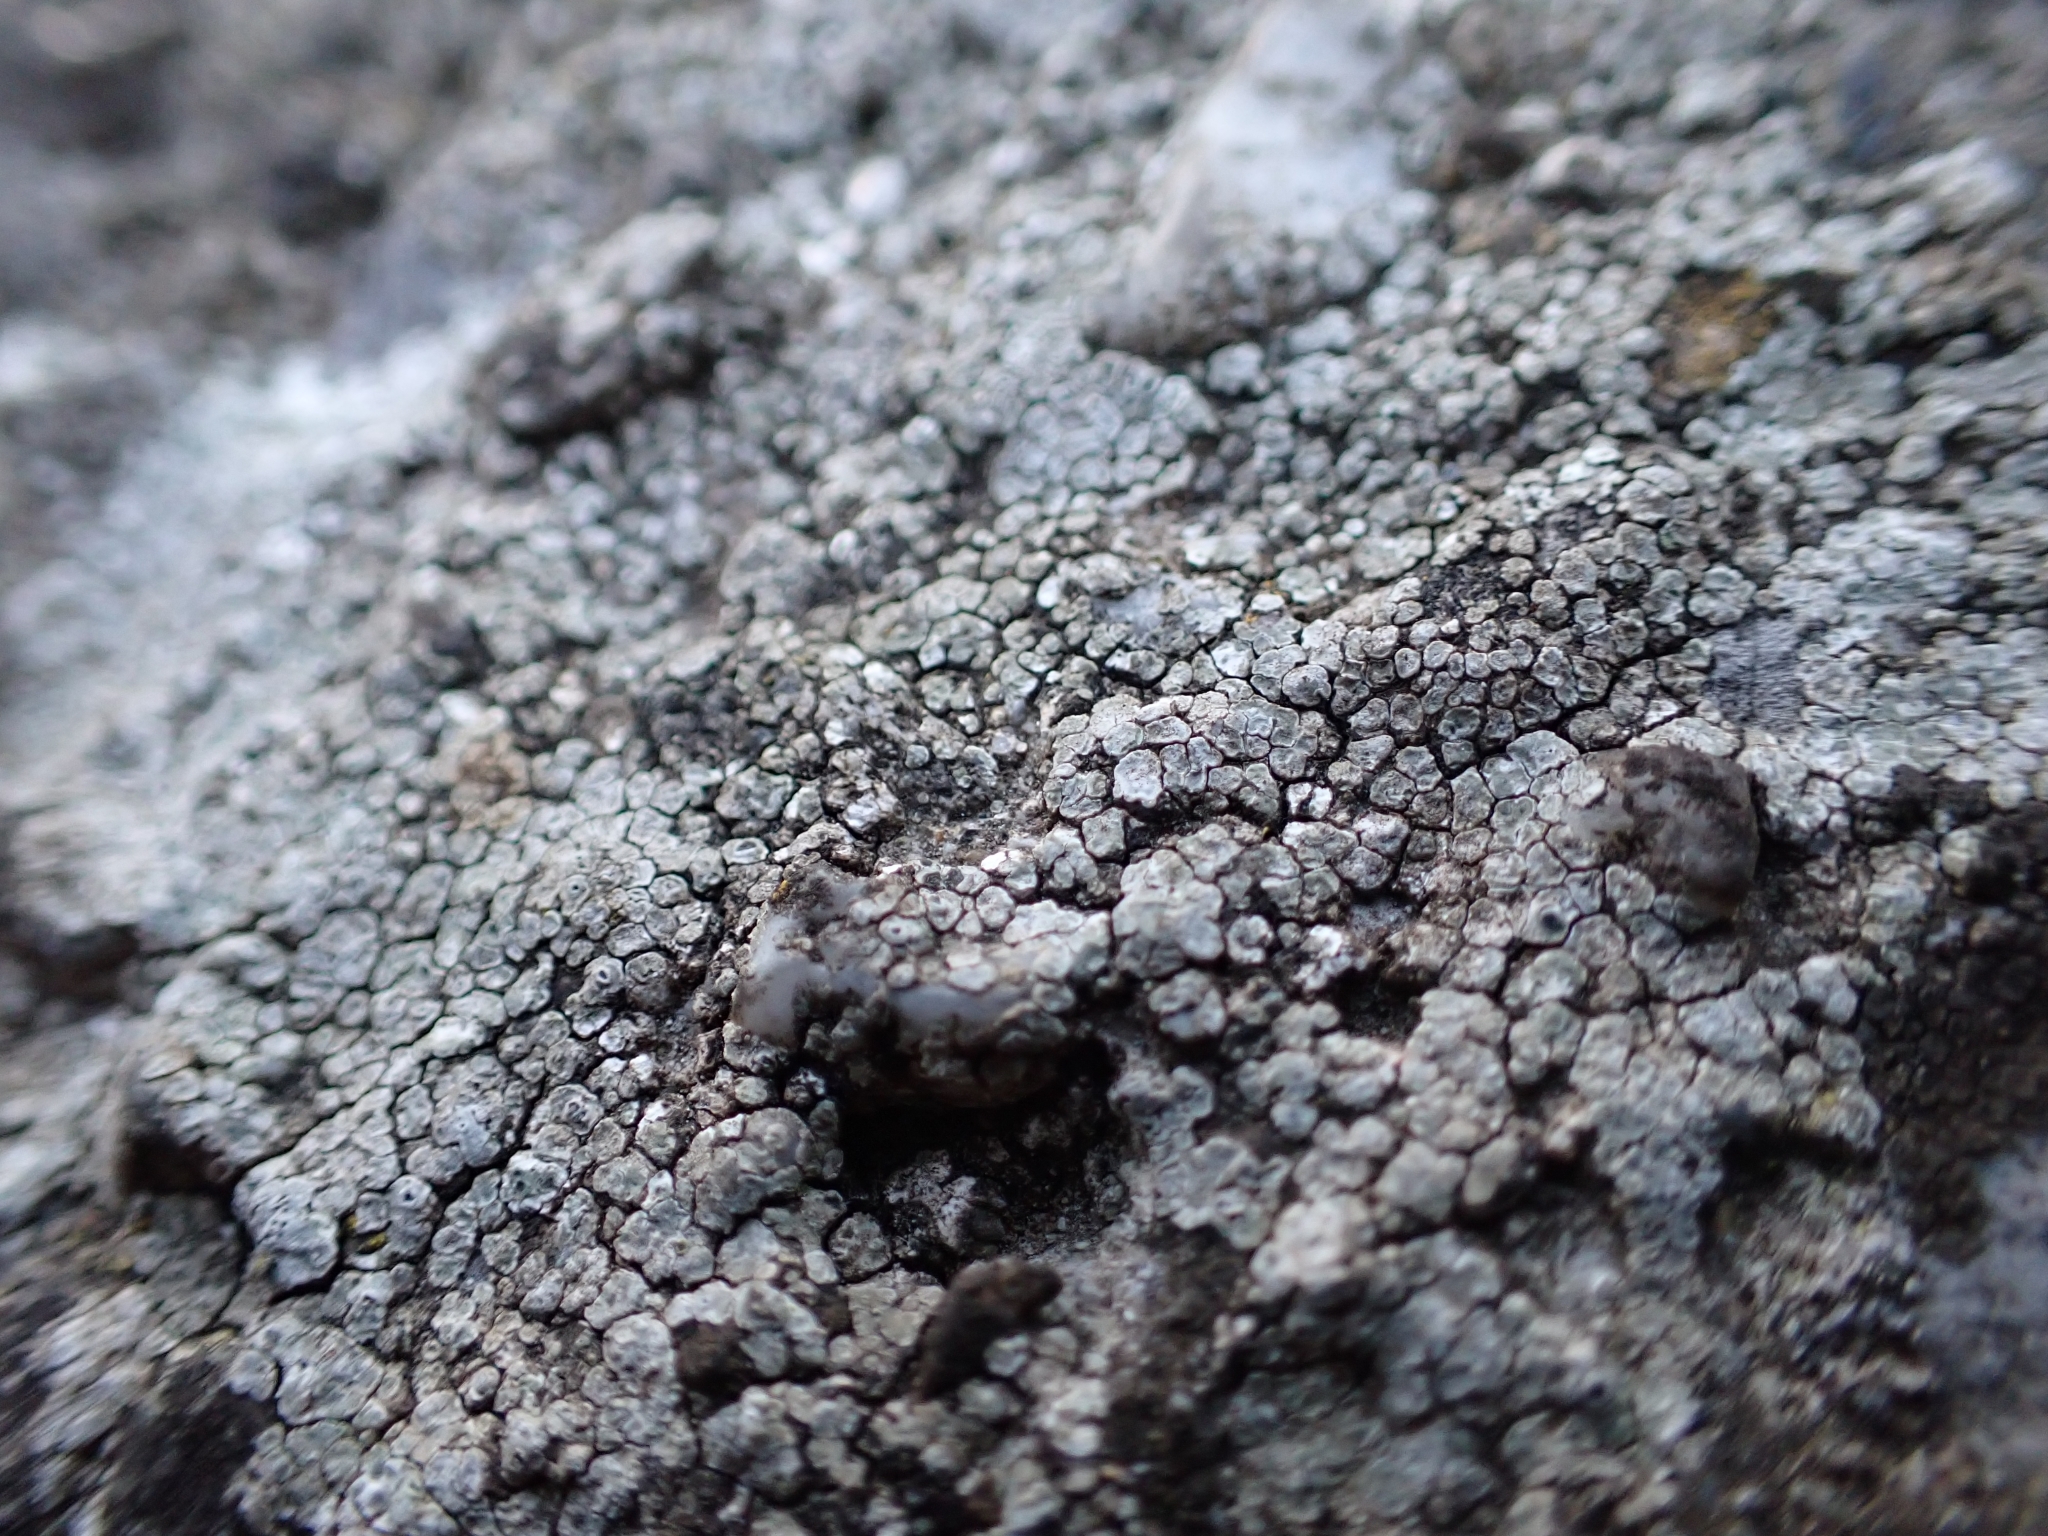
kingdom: Fungi
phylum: Ascomycota
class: Lecanoromycetes
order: Pertusariales
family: Megasporaceae
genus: Circinaria
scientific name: Circinaria contorta
